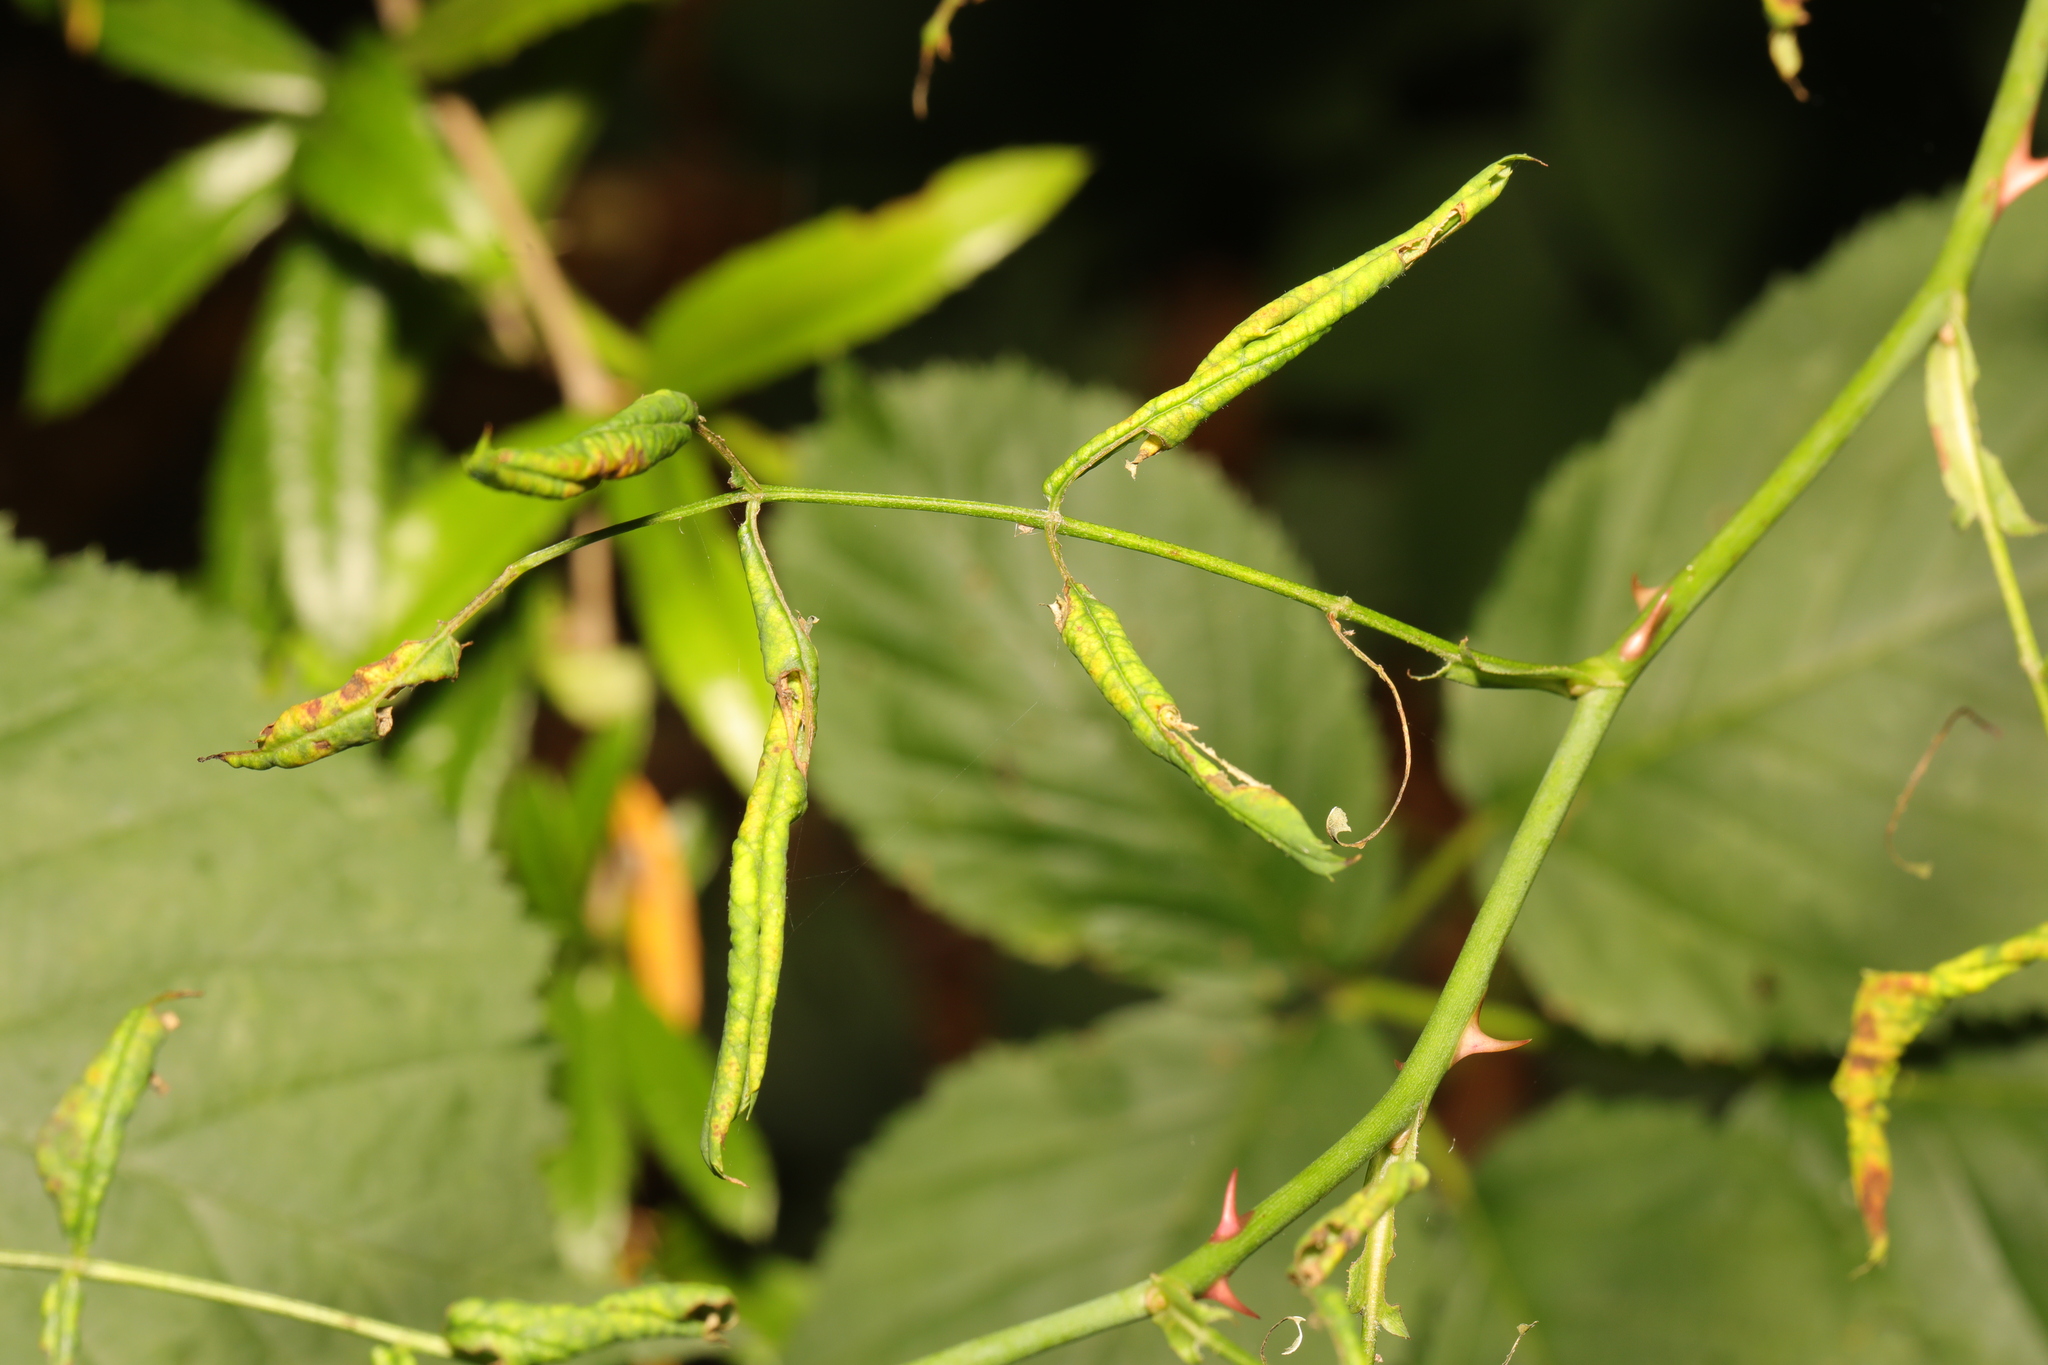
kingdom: Animalia
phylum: Arthropoda
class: Insecta
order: Hymenoptera
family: Tenthredinidae
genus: Blennocampa
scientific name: Blennocampa phyllocolpa
